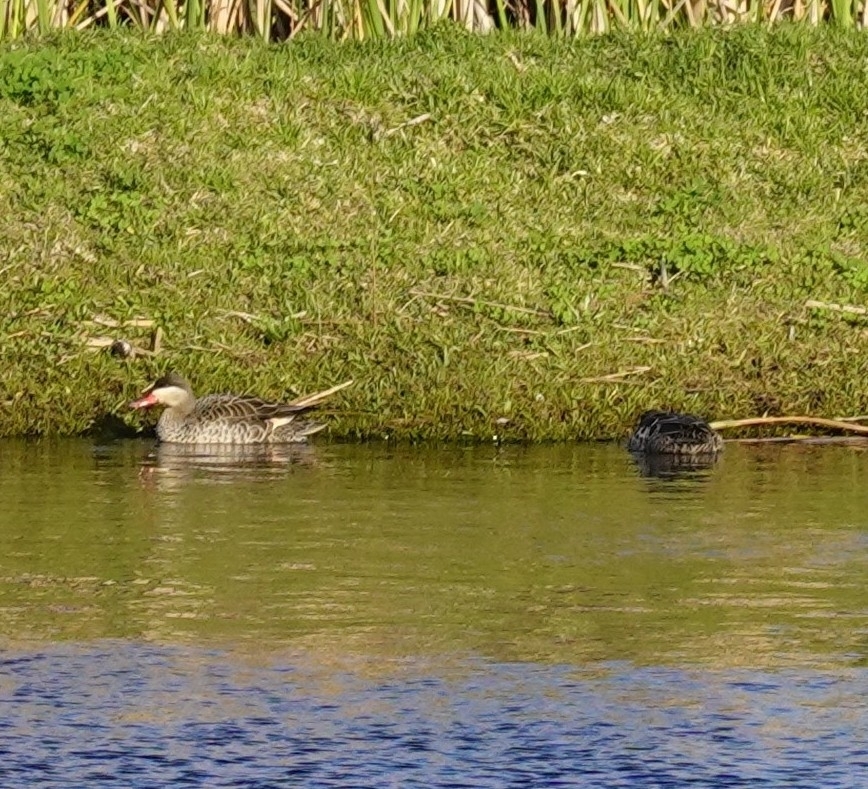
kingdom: Animalia
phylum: Chordata
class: Aves
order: Anseriformes
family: Anatidae
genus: Anas
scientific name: Anas erythrorhyncha
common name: Red-billed teal
